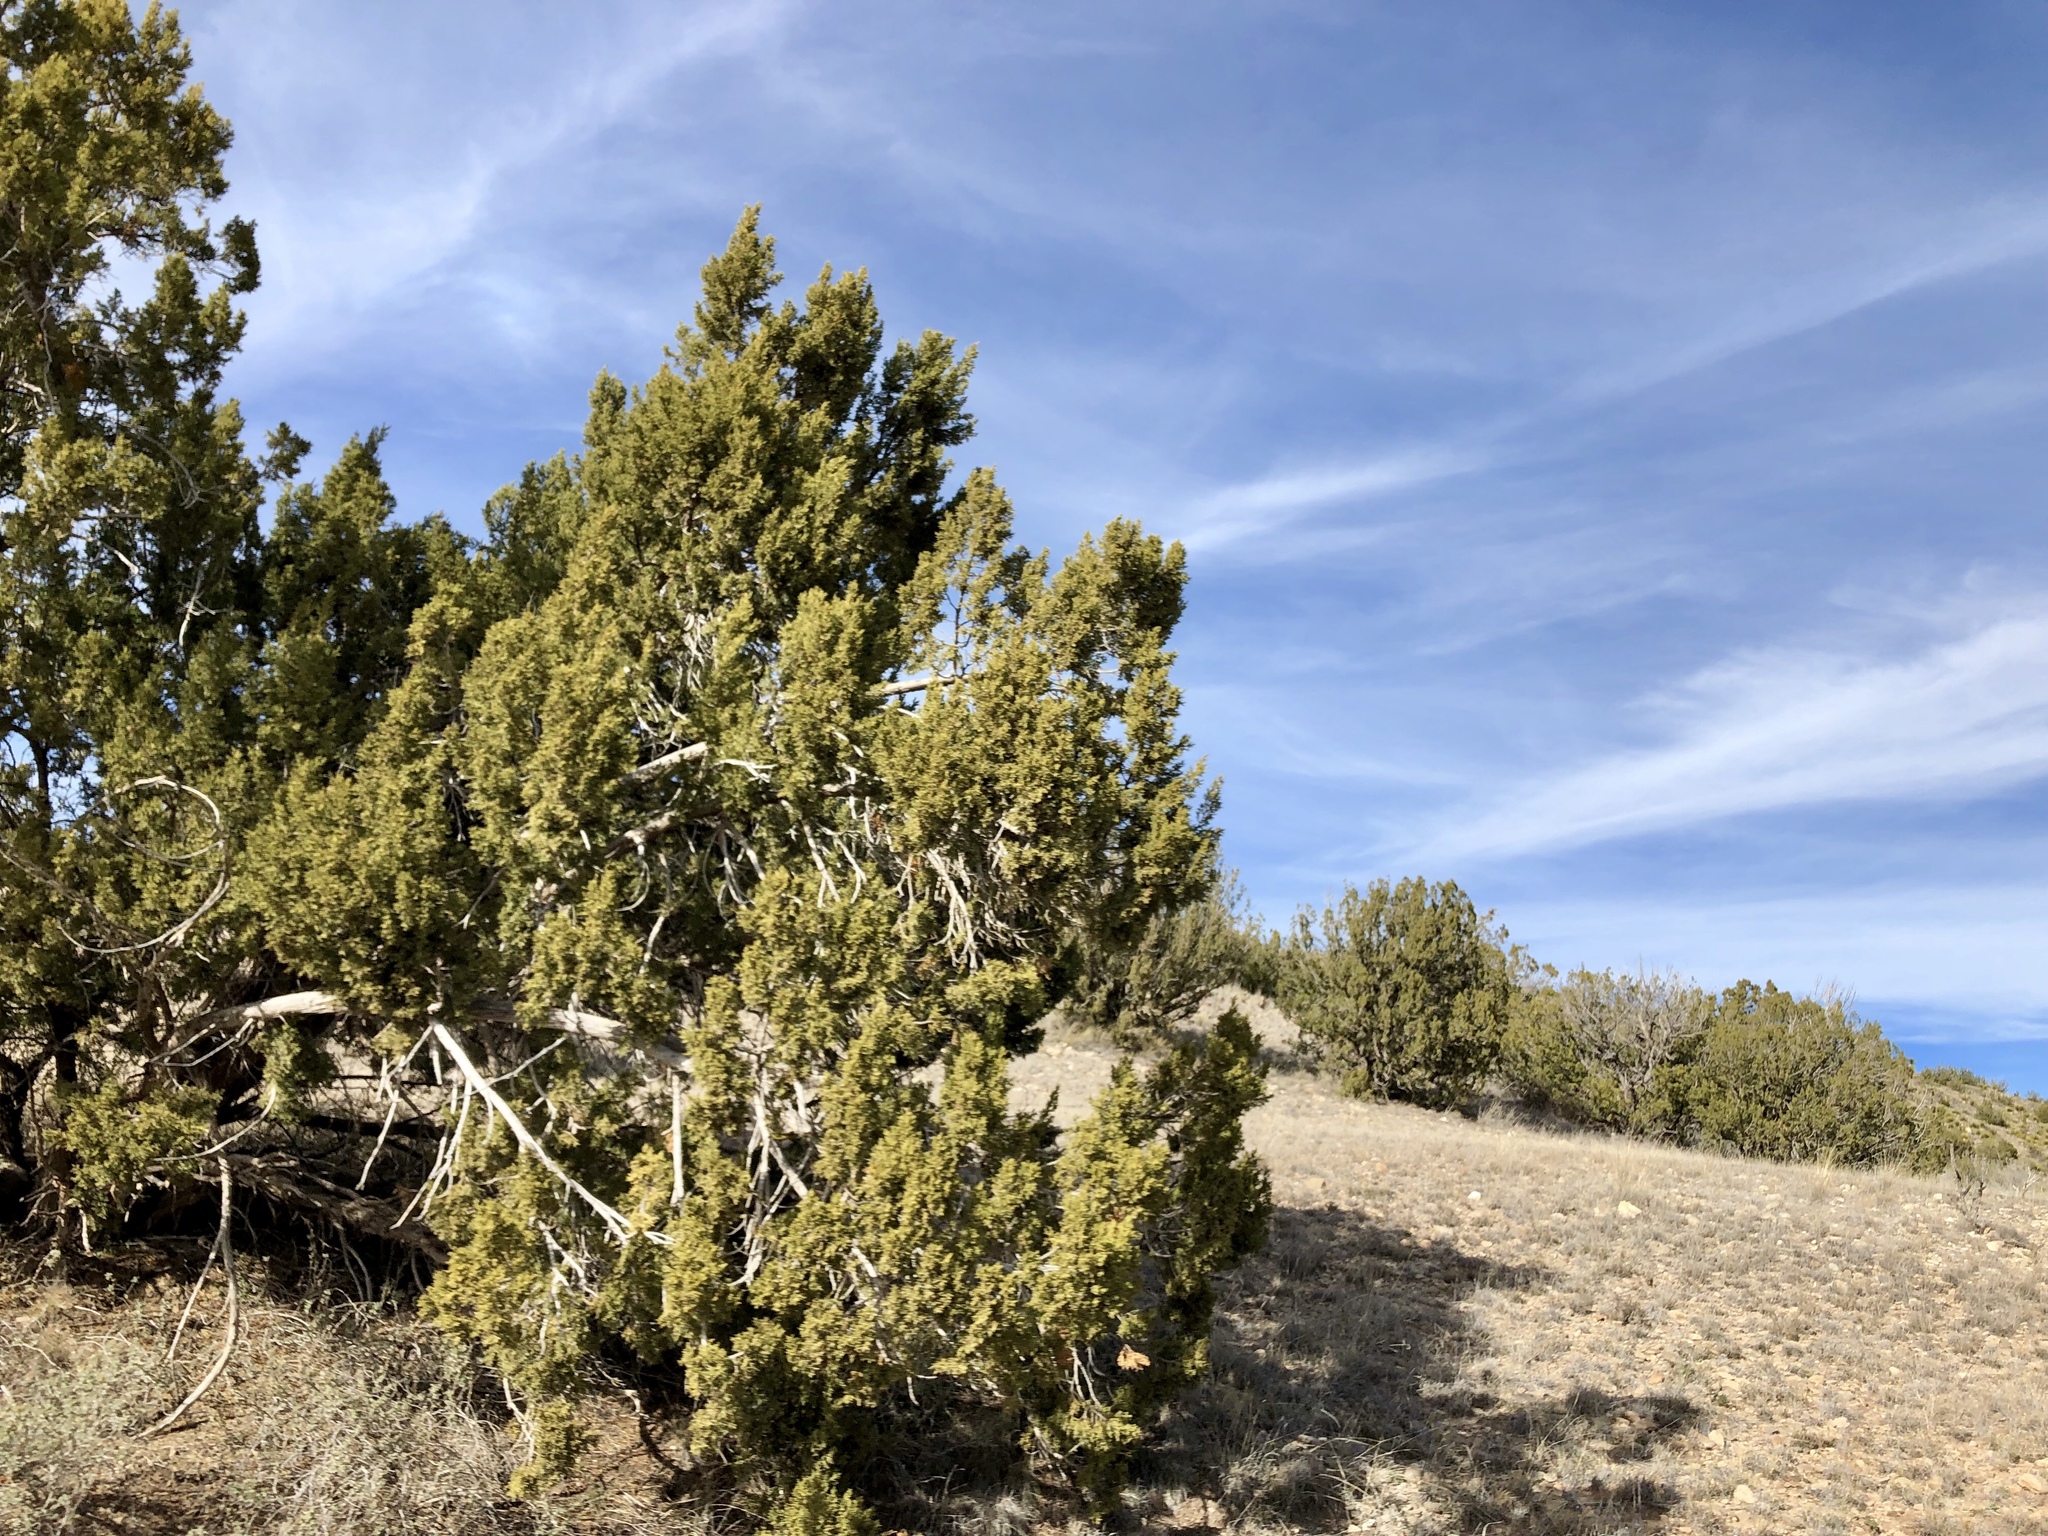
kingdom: Plantae
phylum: Tracheophyta
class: Pinopsida
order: Pinales
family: Cupressaceae
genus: Juniperus
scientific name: Juniperus monosperma
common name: One-seed juniper
